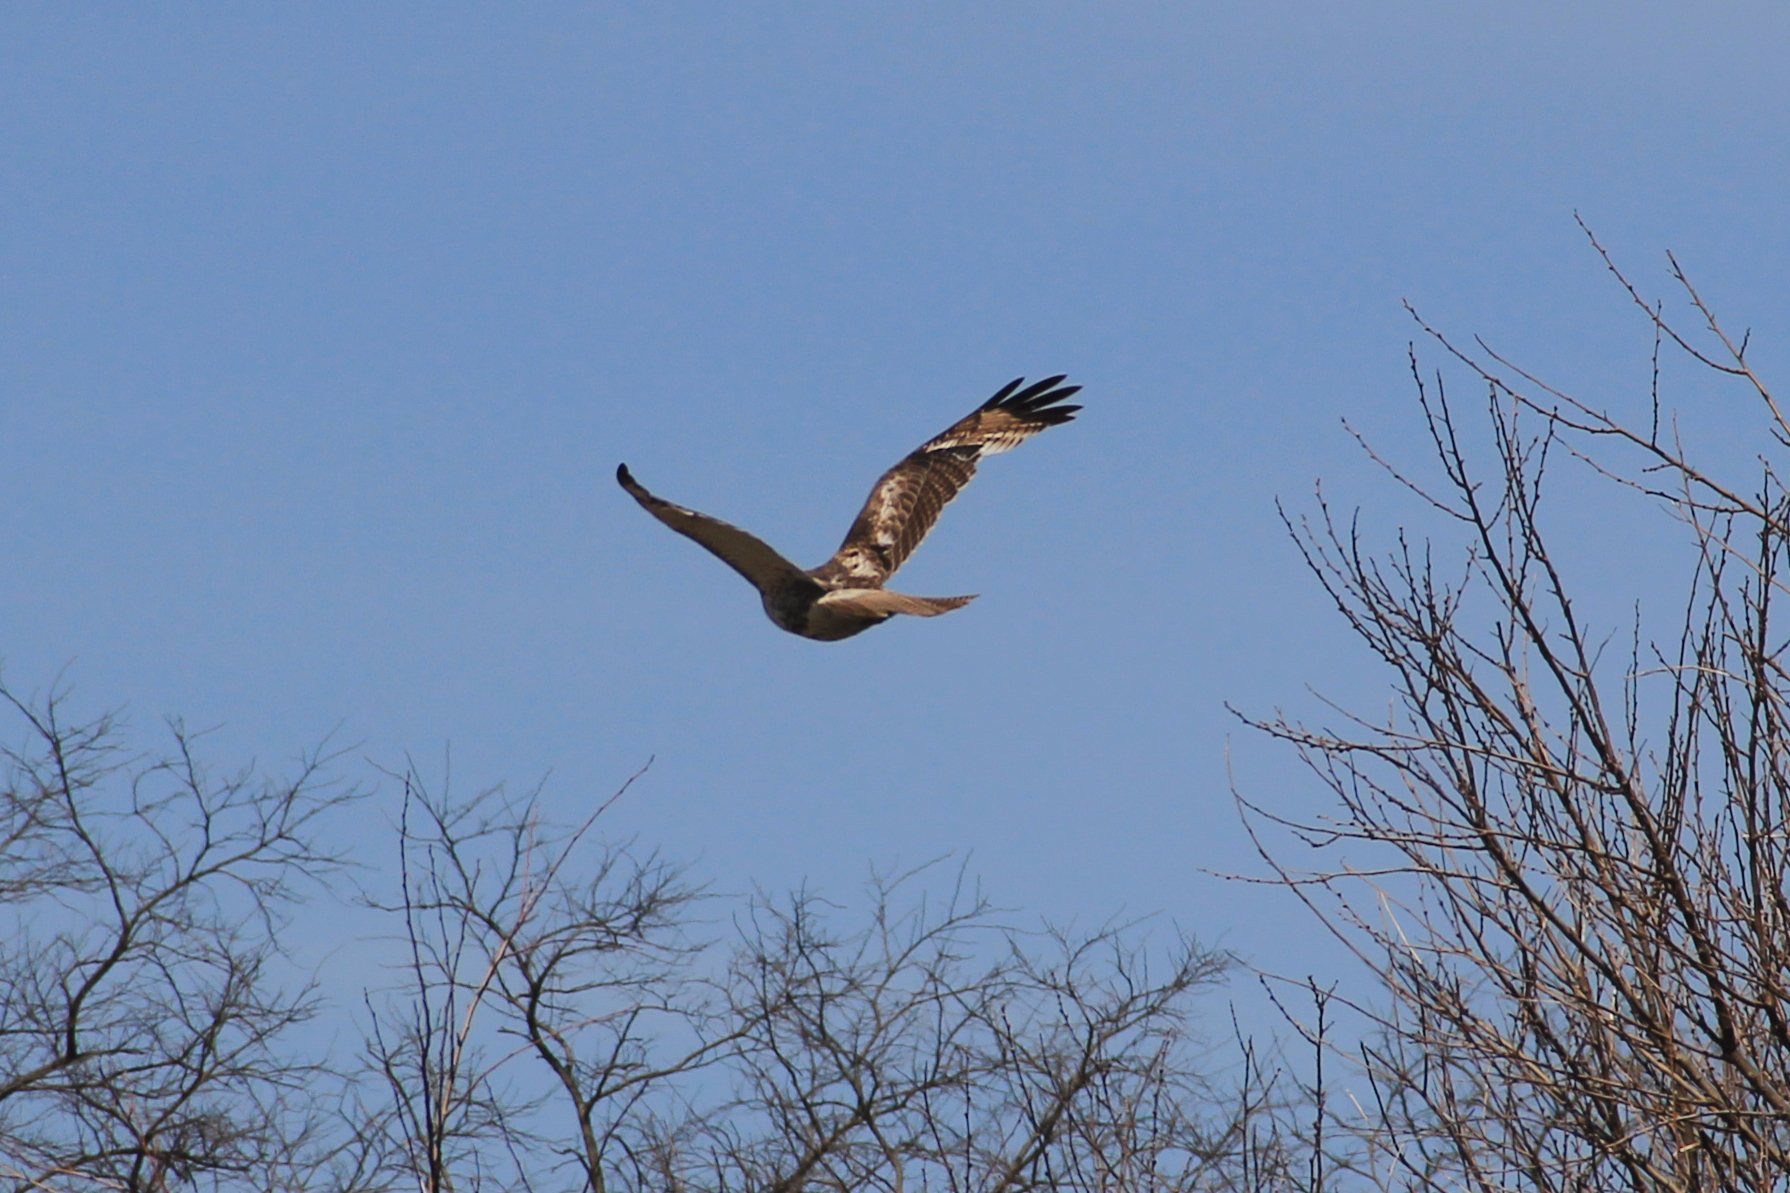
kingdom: Animalia
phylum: Chordata
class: Aves
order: Accipitriformes
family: Accipitridae
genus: Buteo
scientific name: Buteo jamaicensis
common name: Red-tailed hawk
